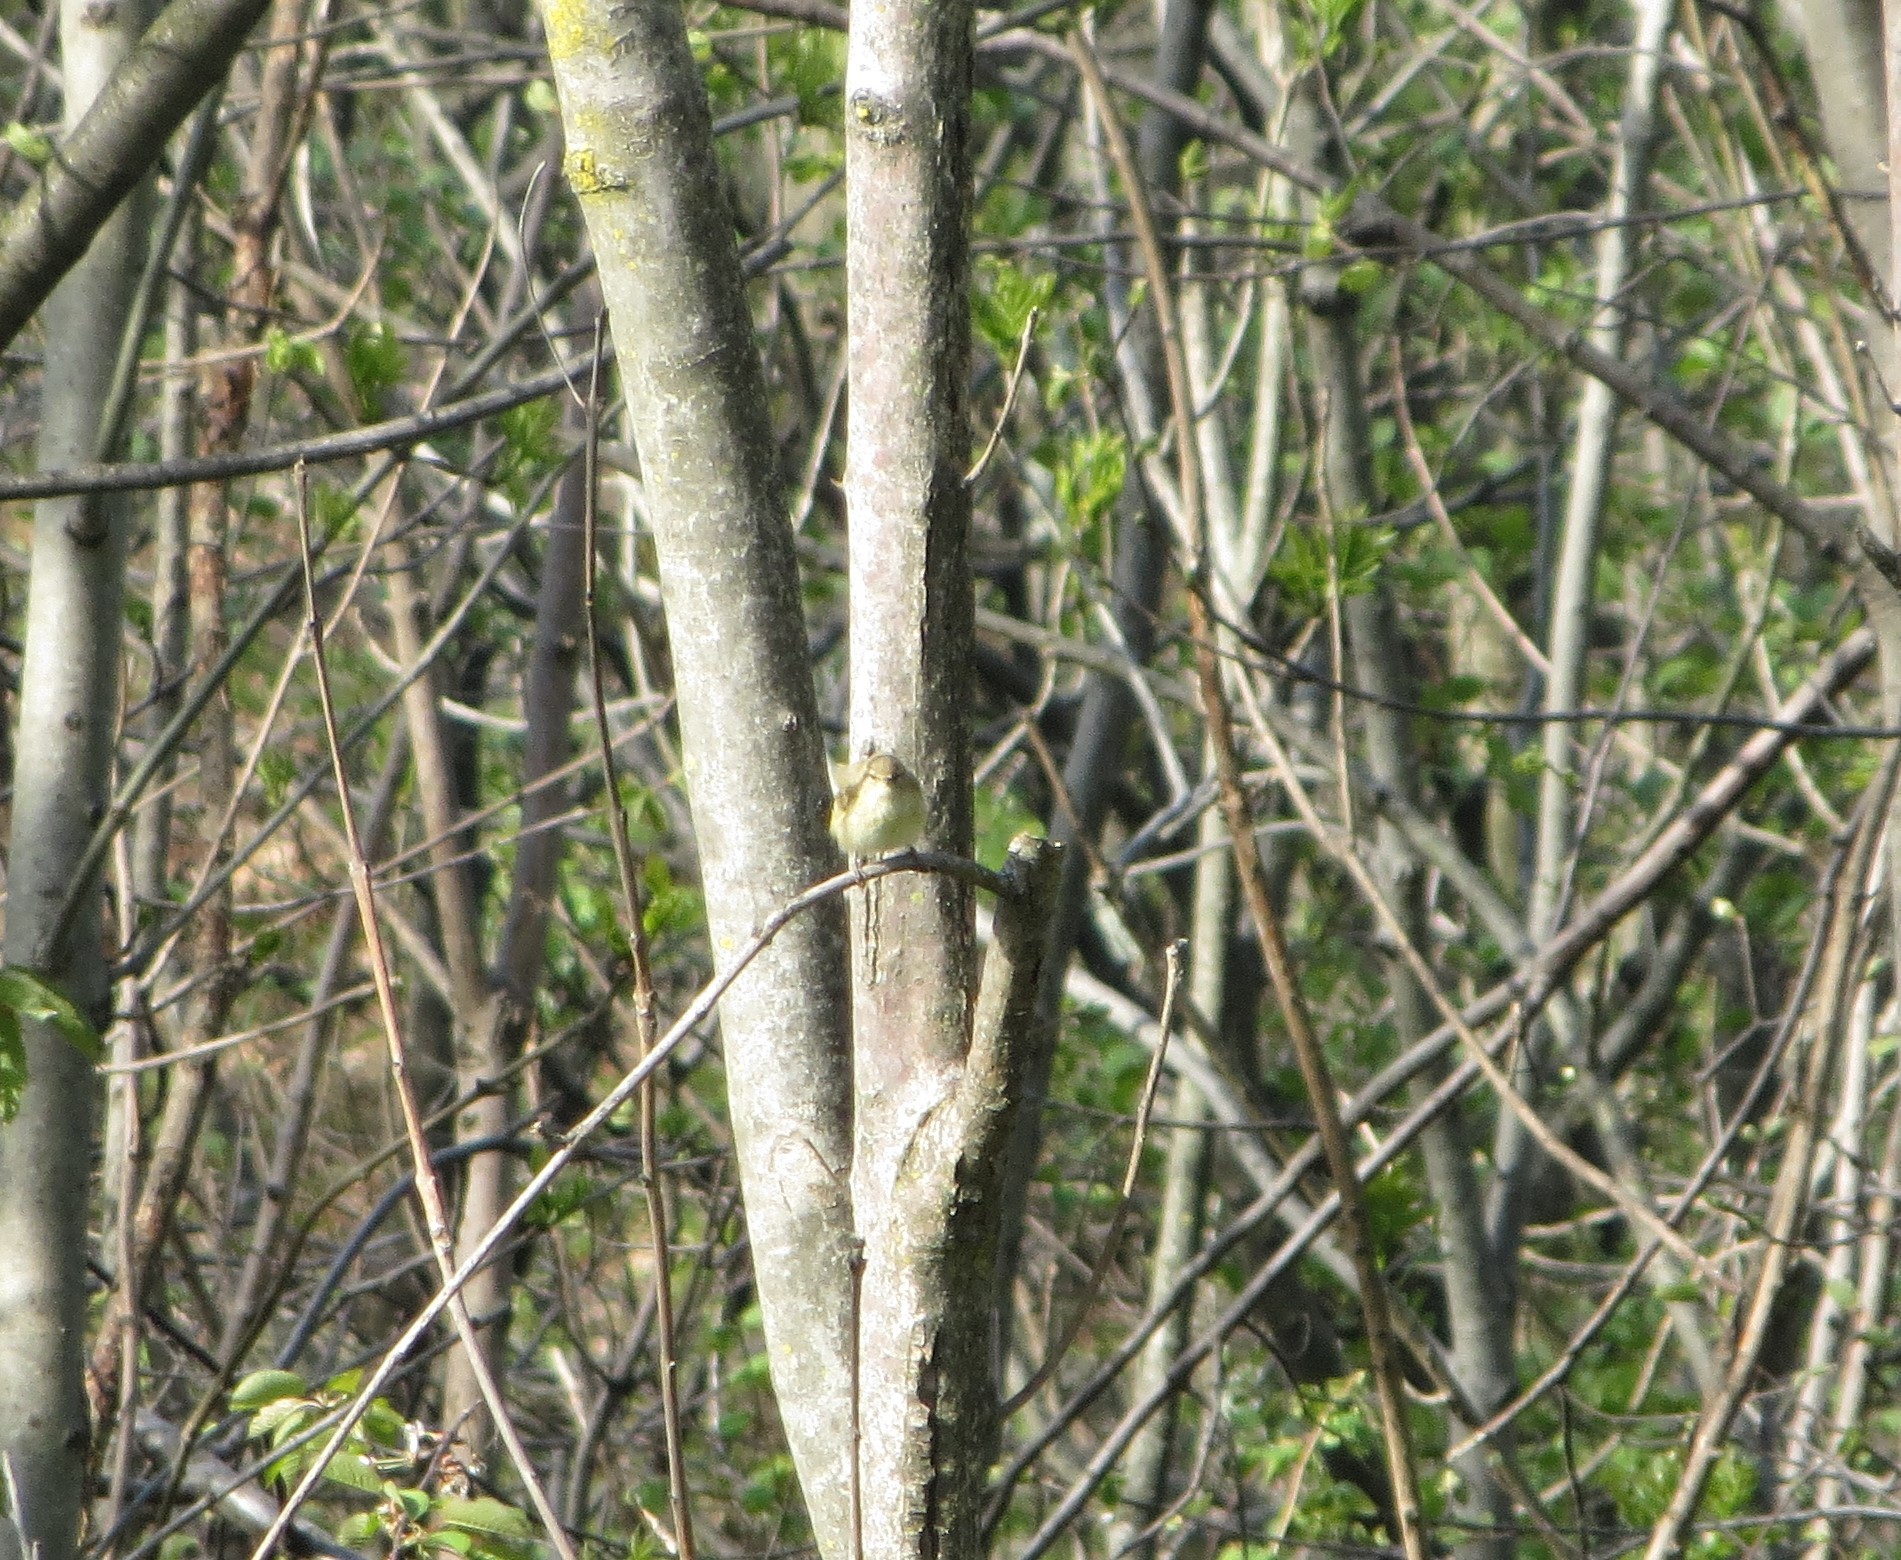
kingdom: Animalia
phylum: Chordata
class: Aves
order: Passeriformes
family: Phylloscopidae
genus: Phylloscopus
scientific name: Phylloscopus trochilus
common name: Willow warbler
